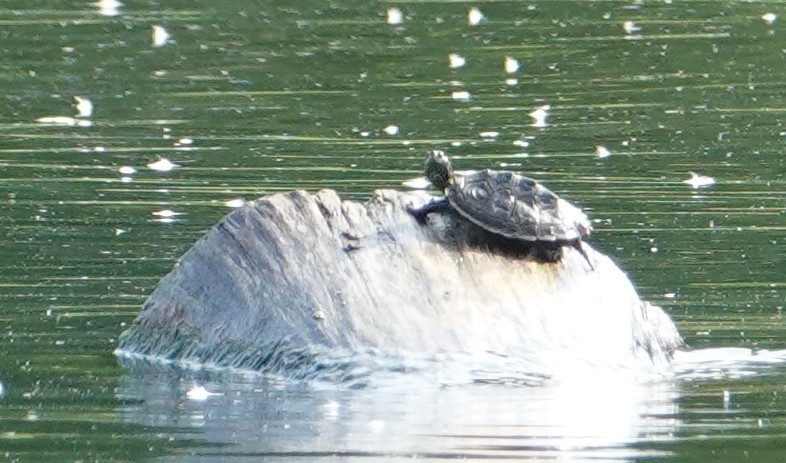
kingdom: Animalia
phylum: Chordata
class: Testudines
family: Emydidae
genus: Graptemys
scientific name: Graptemys geographica
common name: Common map turtle
